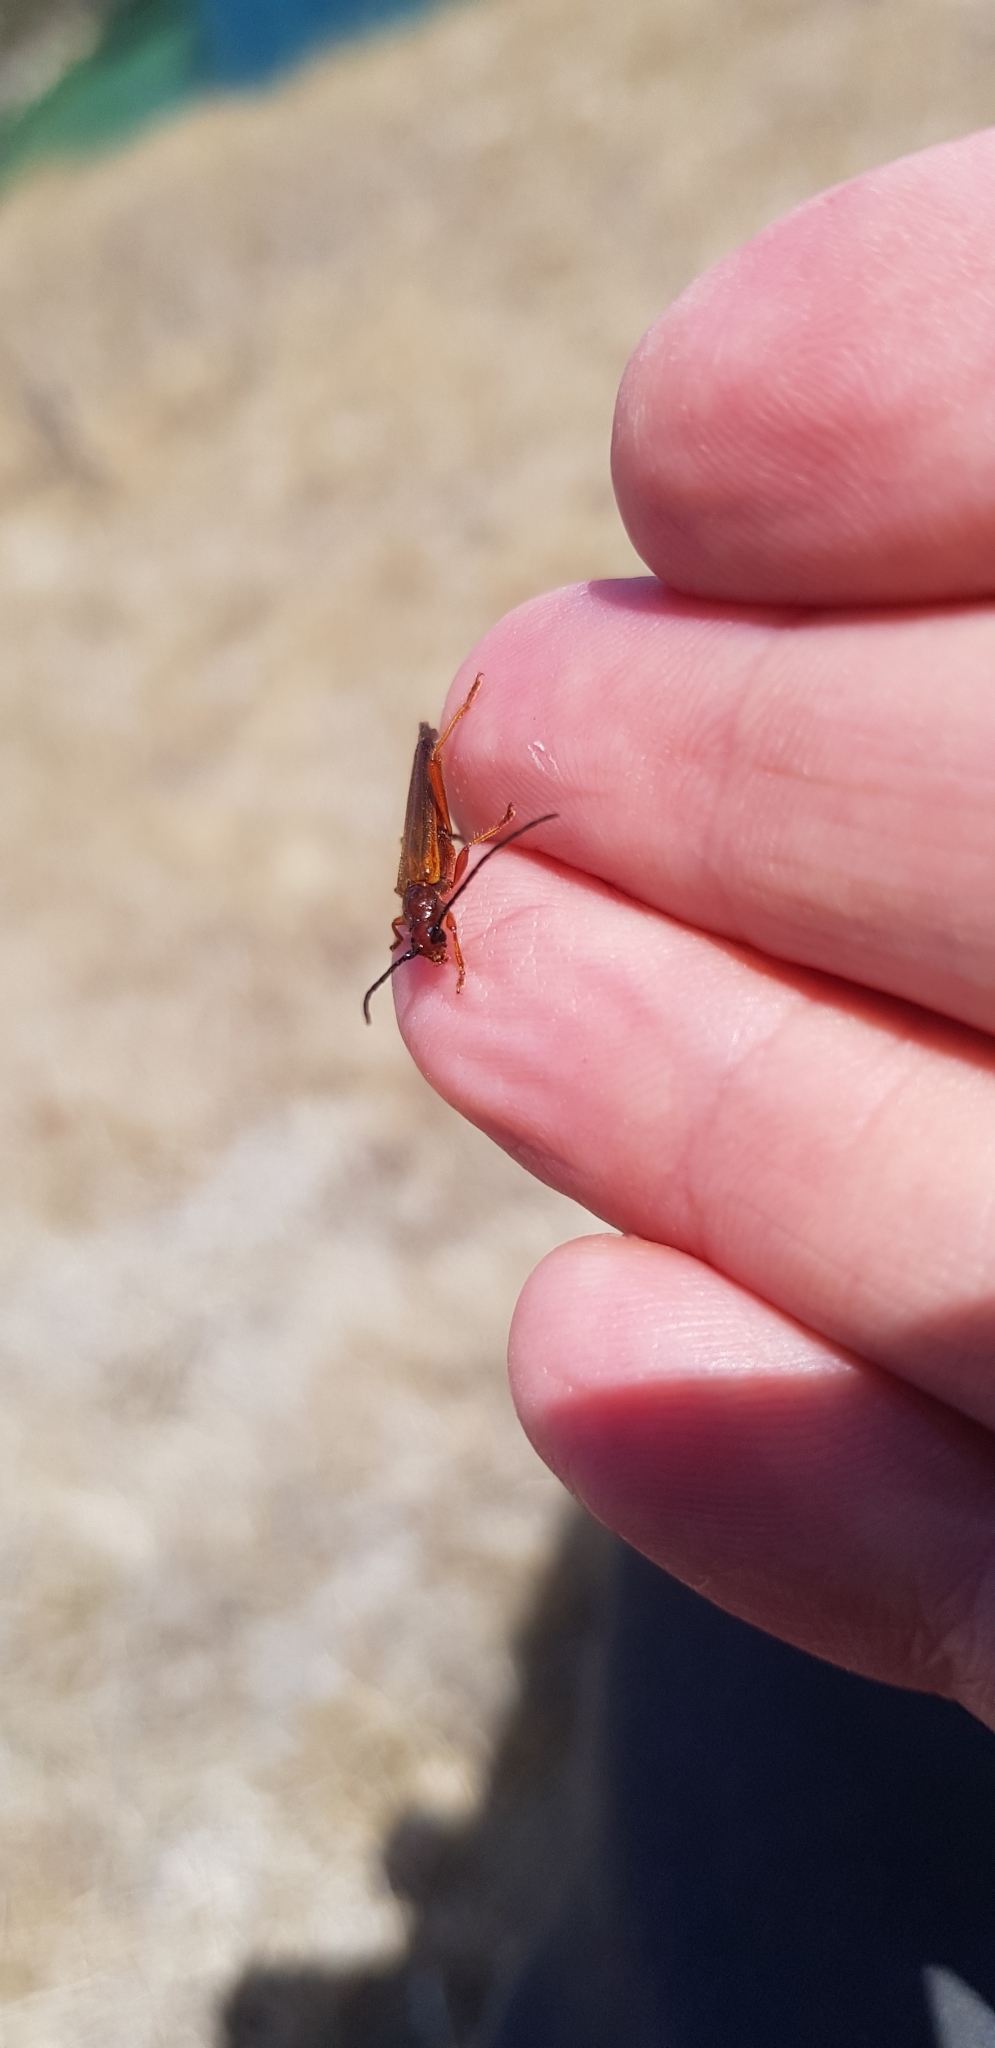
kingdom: Animalia
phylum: Arthropoda
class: Insecta
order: Coleoptera
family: Cerambycidae
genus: Gastrosarus
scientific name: Gastrosarus nigricollis
